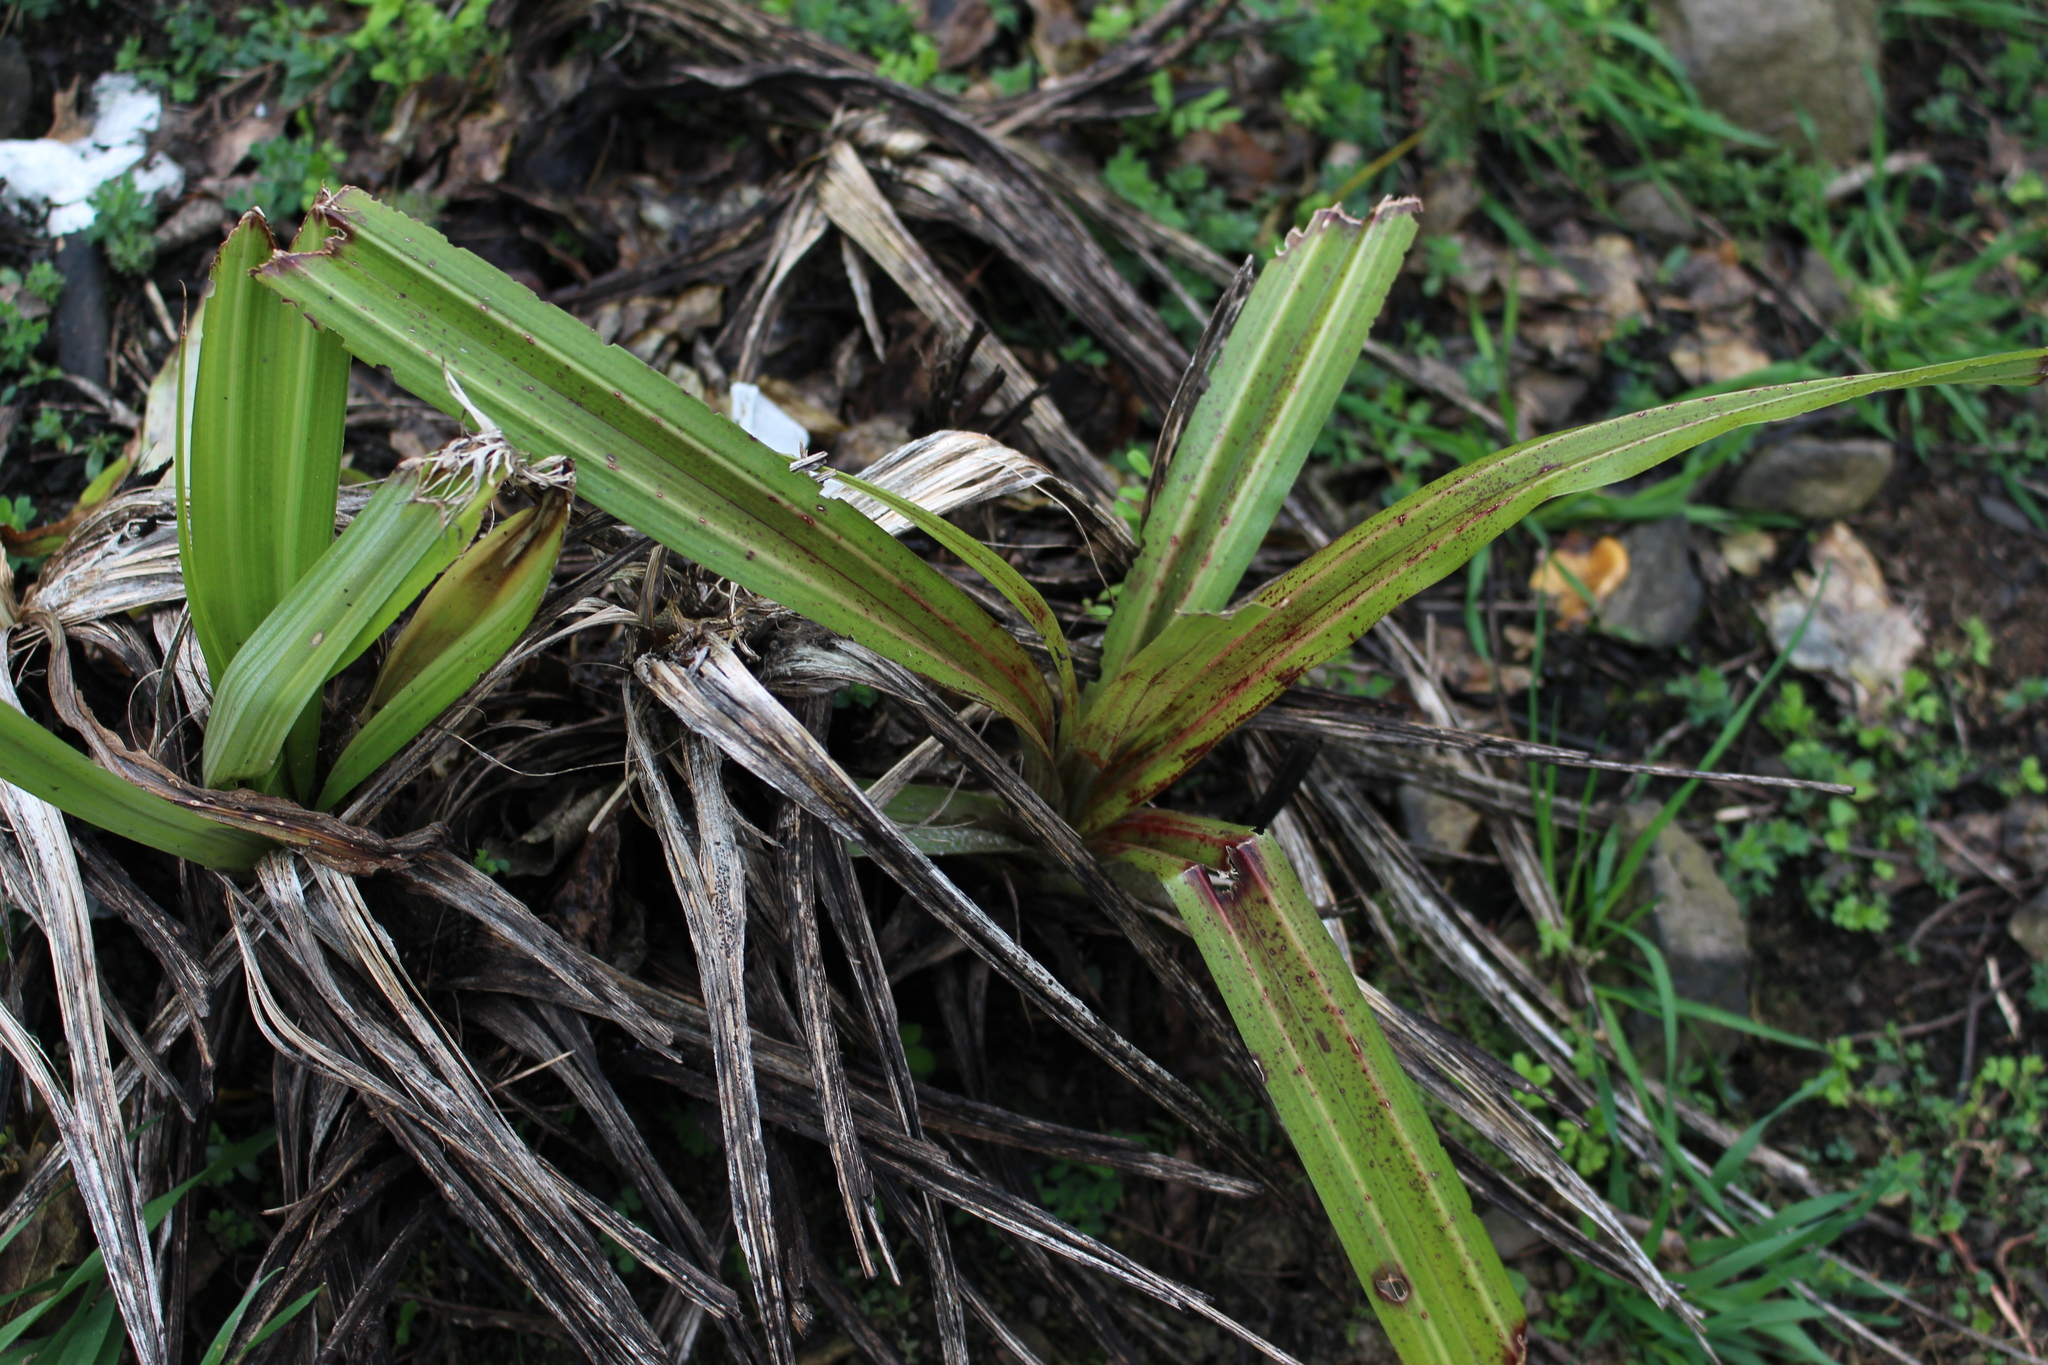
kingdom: Plantae
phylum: Tracheophyta
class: Liliopsida
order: Asparagales
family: Asteliaceae
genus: Astelia
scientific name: Astelia fragrans
